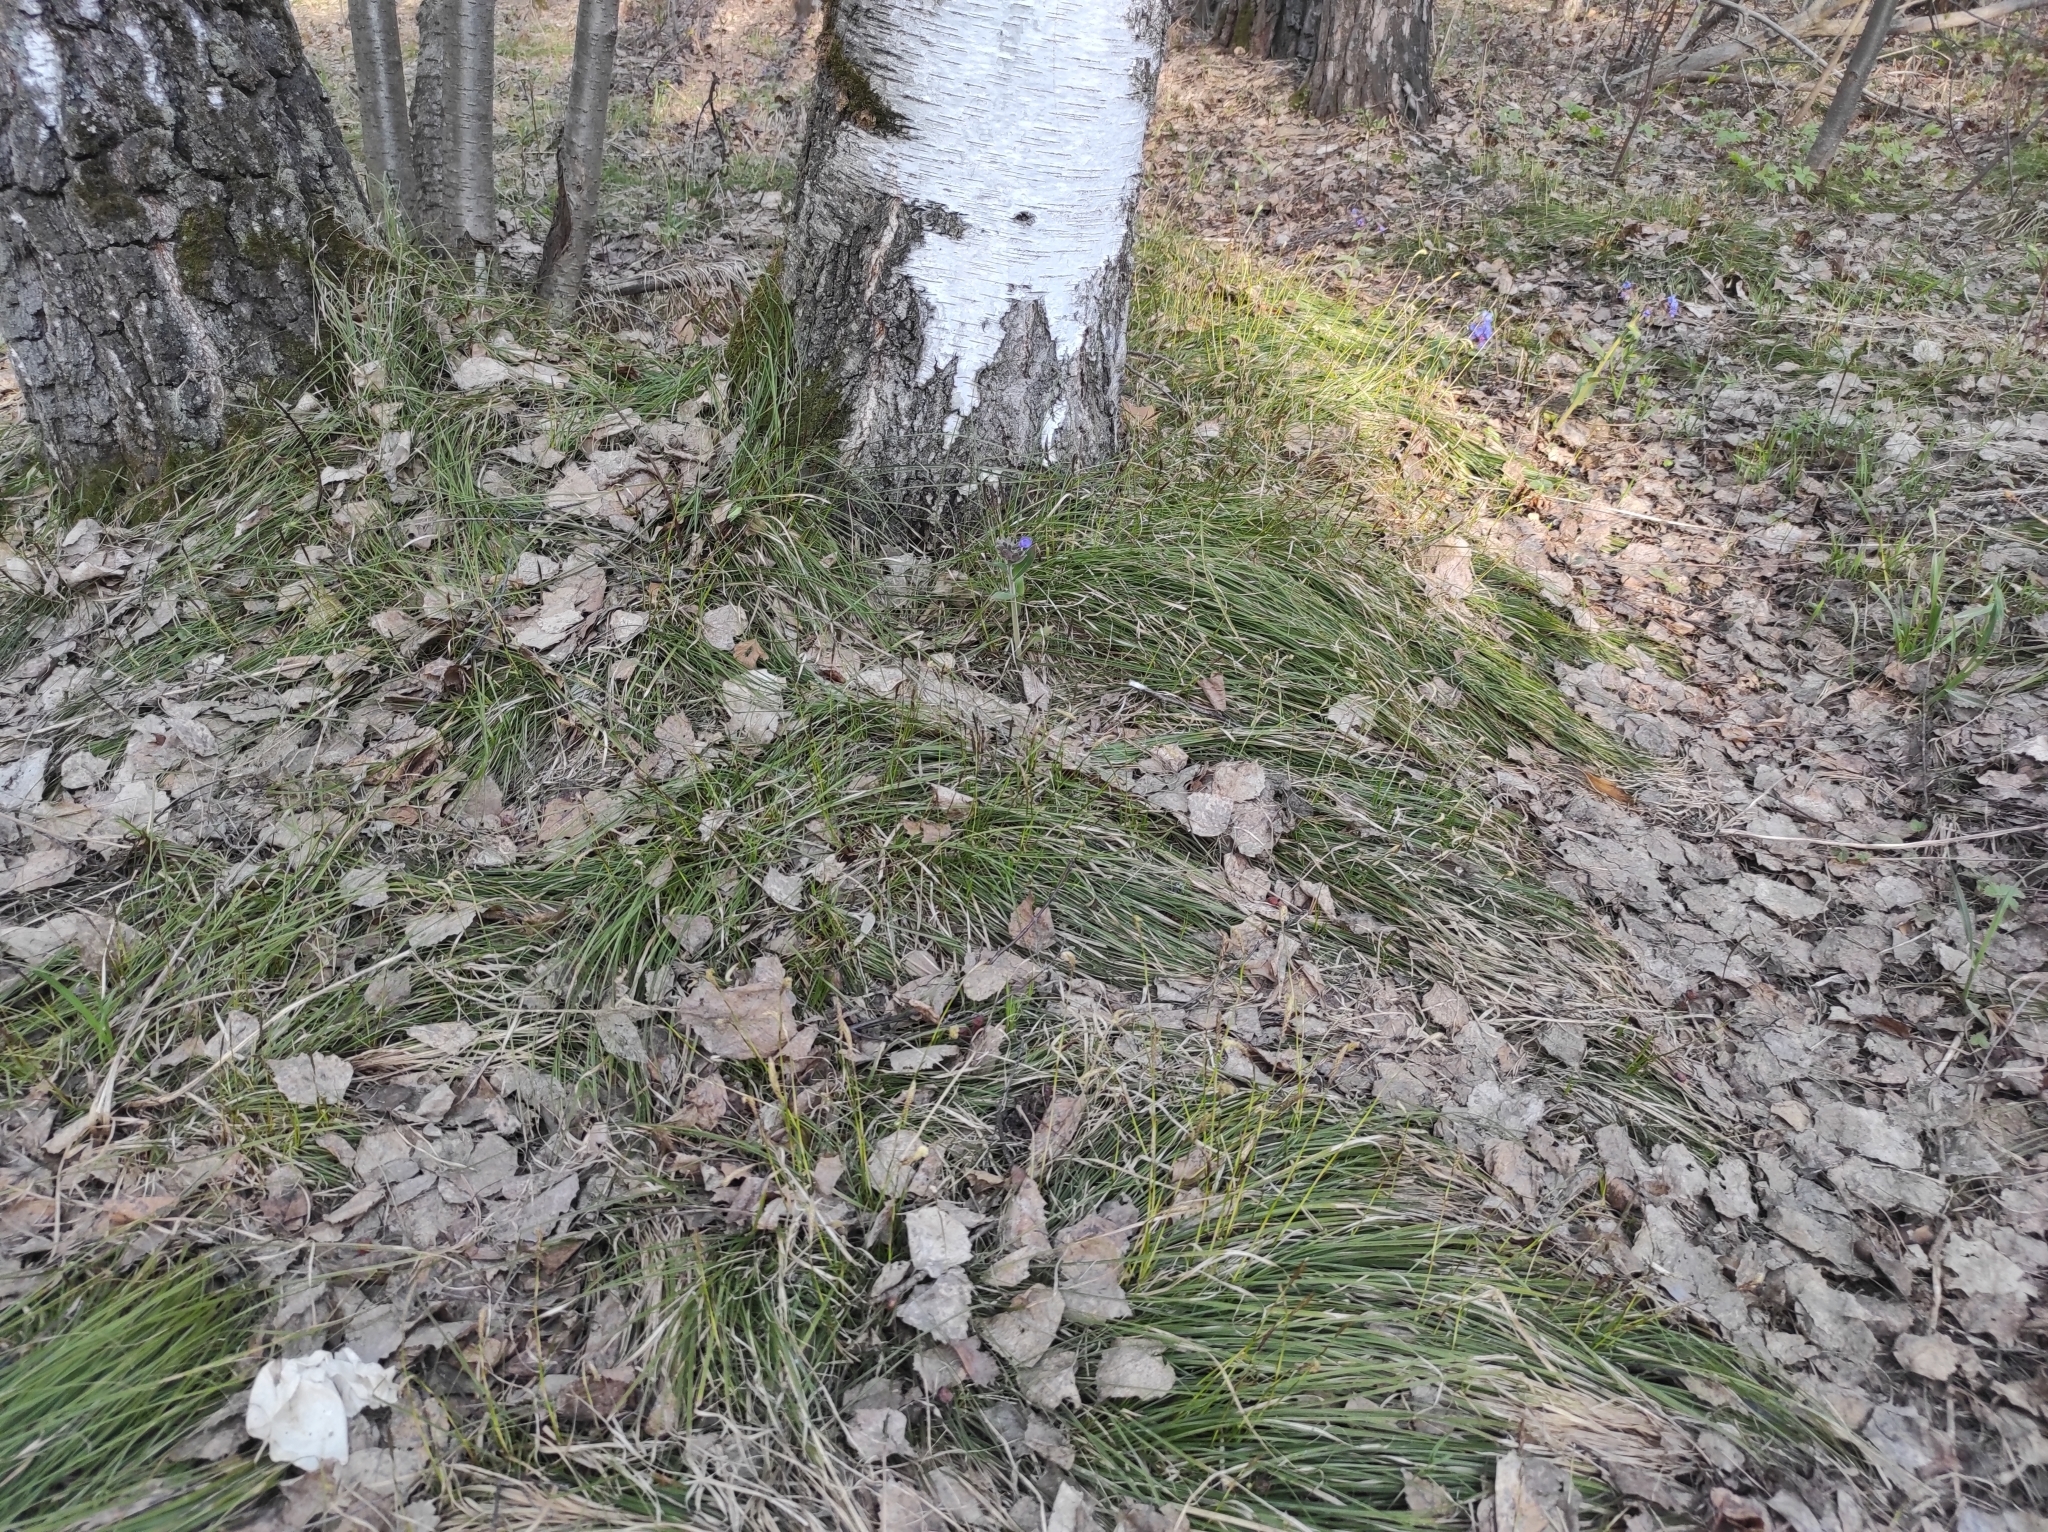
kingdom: Plantae
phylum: Tracheophyta
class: Magnoliopsida
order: Boraginales
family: Boraginaceae
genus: Pulmonaria
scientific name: Pulmonaria mollis
